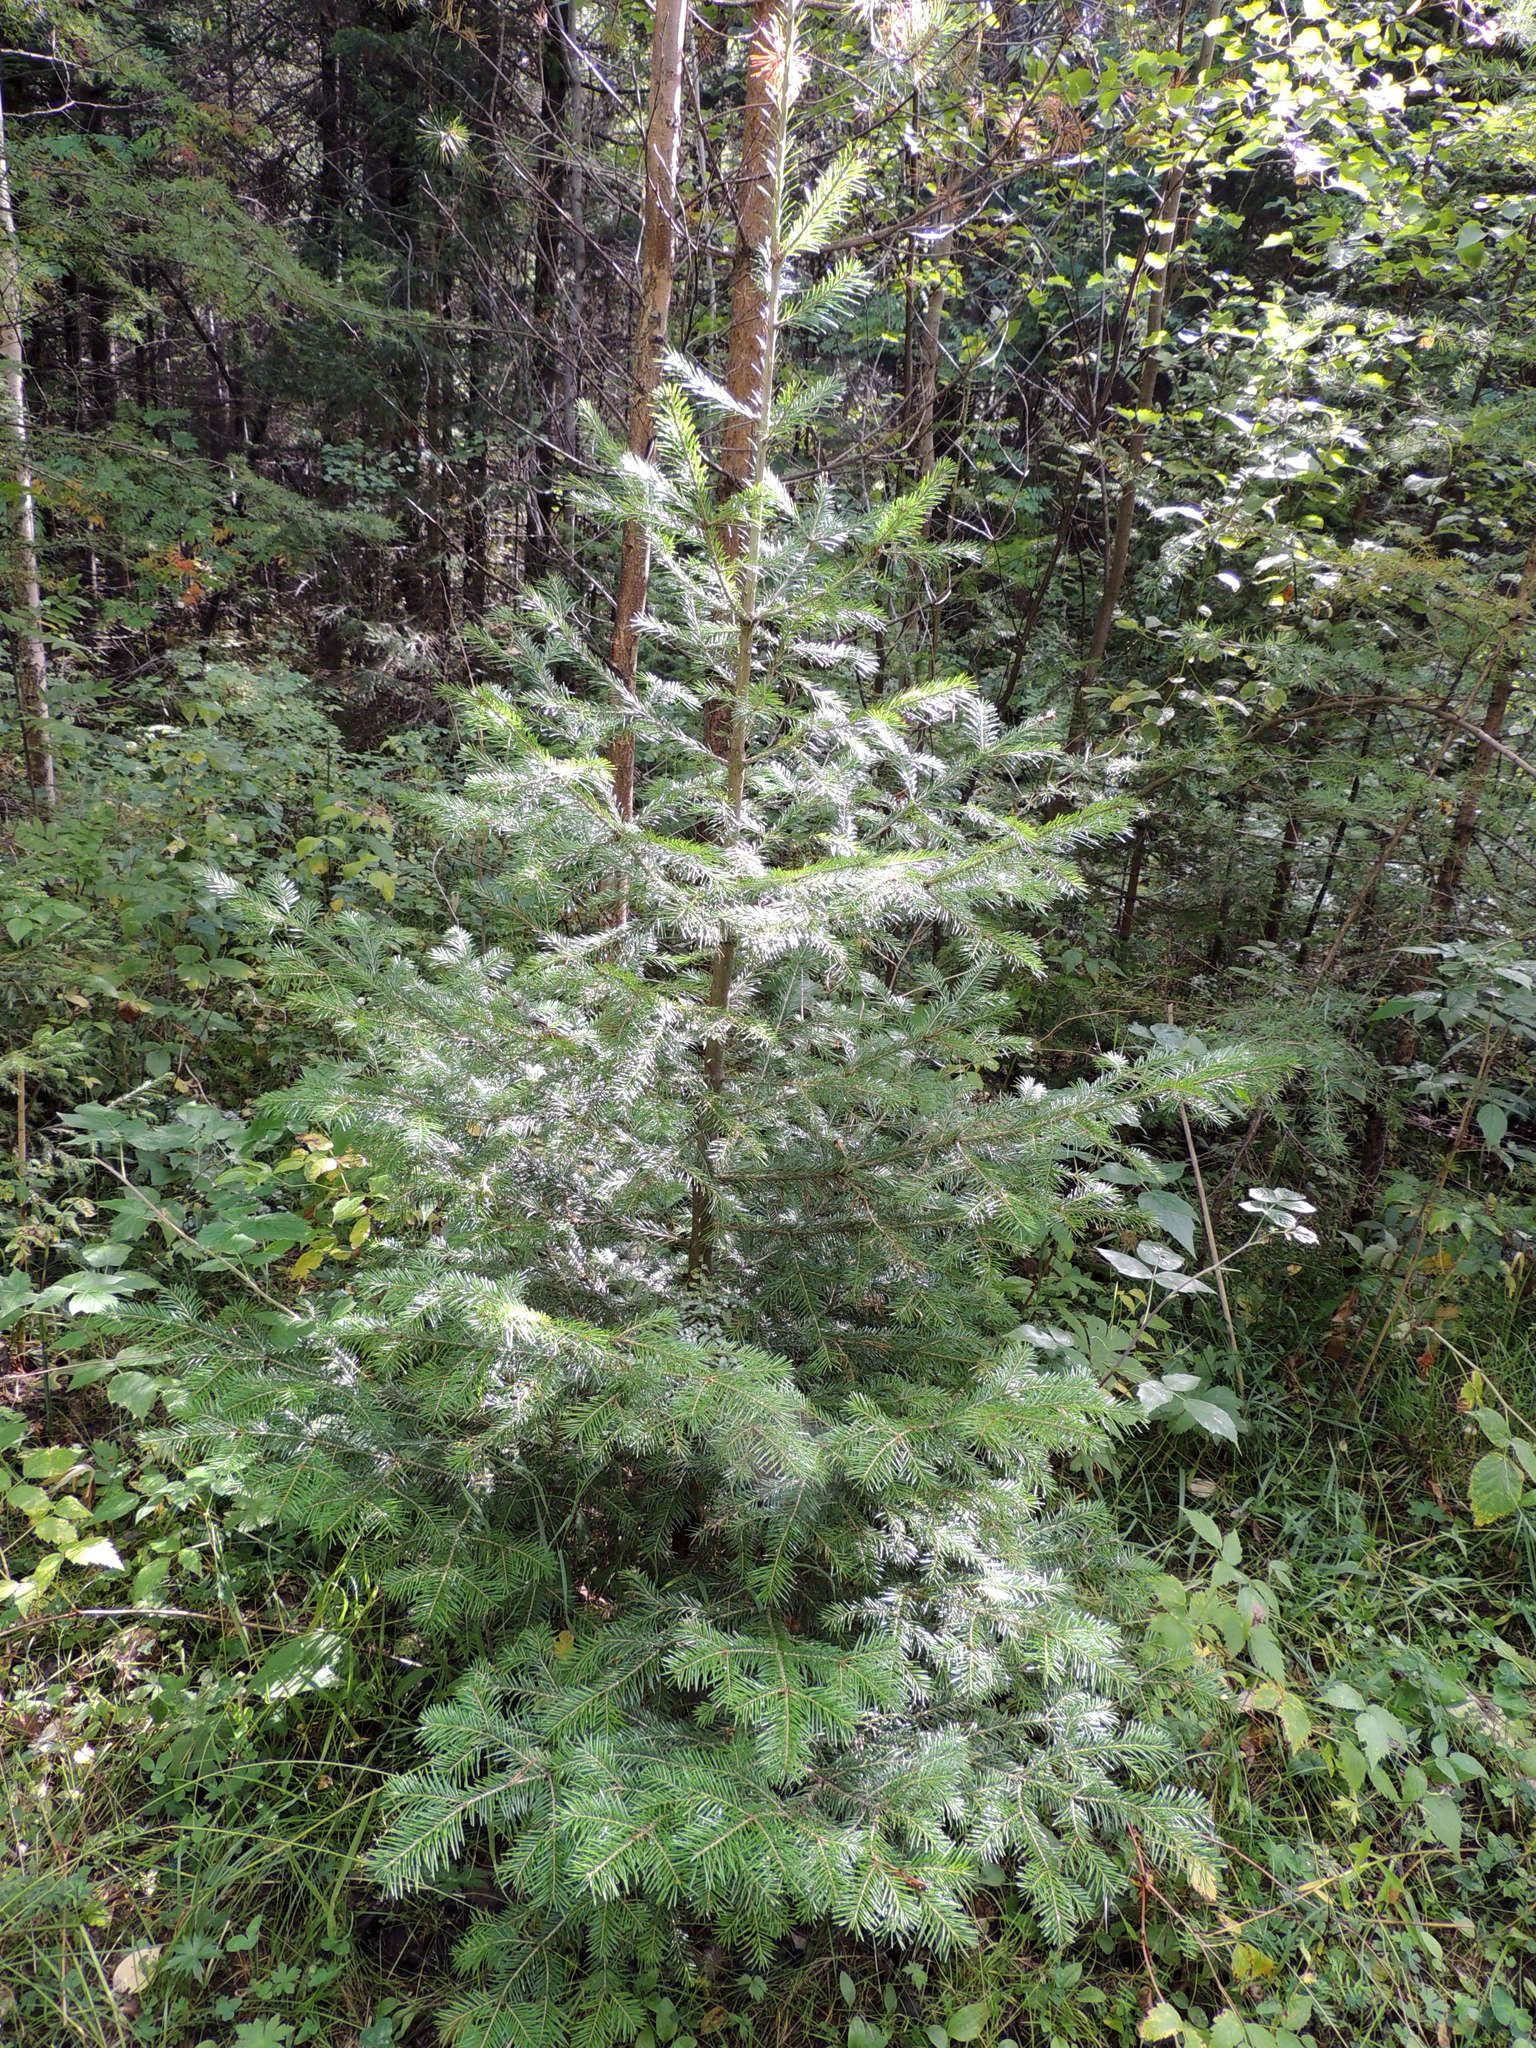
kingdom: Plantae
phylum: Tracheophyta
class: Pinopsida
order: Pinales
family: Pinaceae
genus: Abies
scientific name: Abies sibirica
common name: Siberian fir
